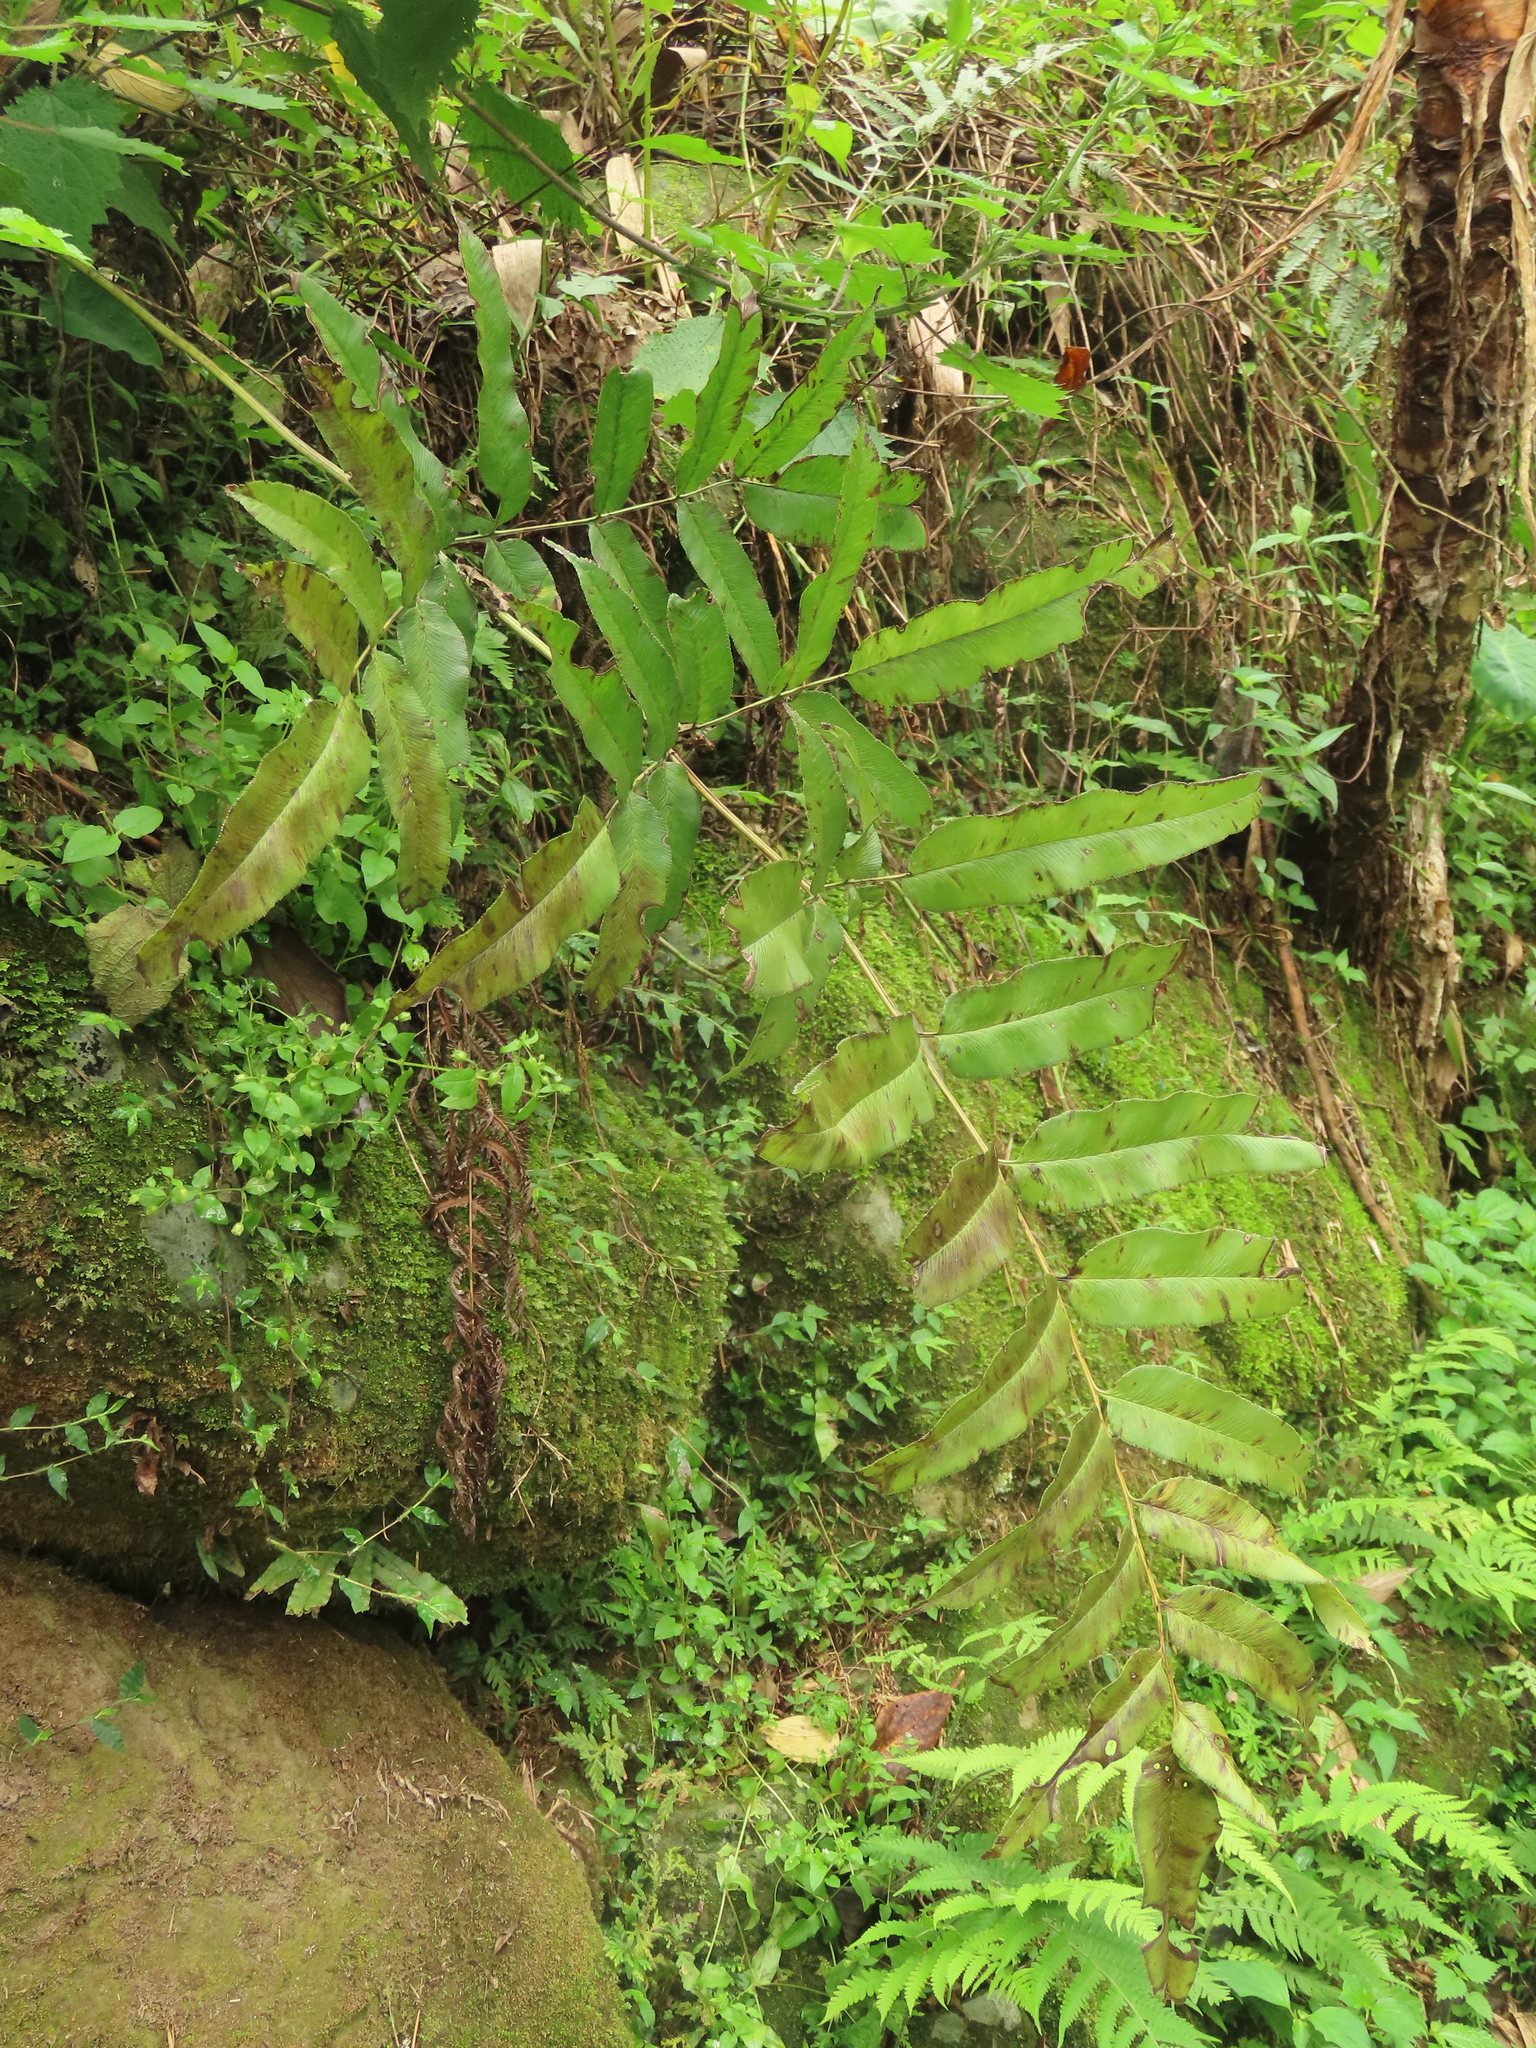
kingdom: Plantae
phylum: Tracheophyta
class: Polypodiopsida
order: Polypodiales
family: Pteridaceae
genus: Coniogramme
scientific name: Coniogramme intermedia
